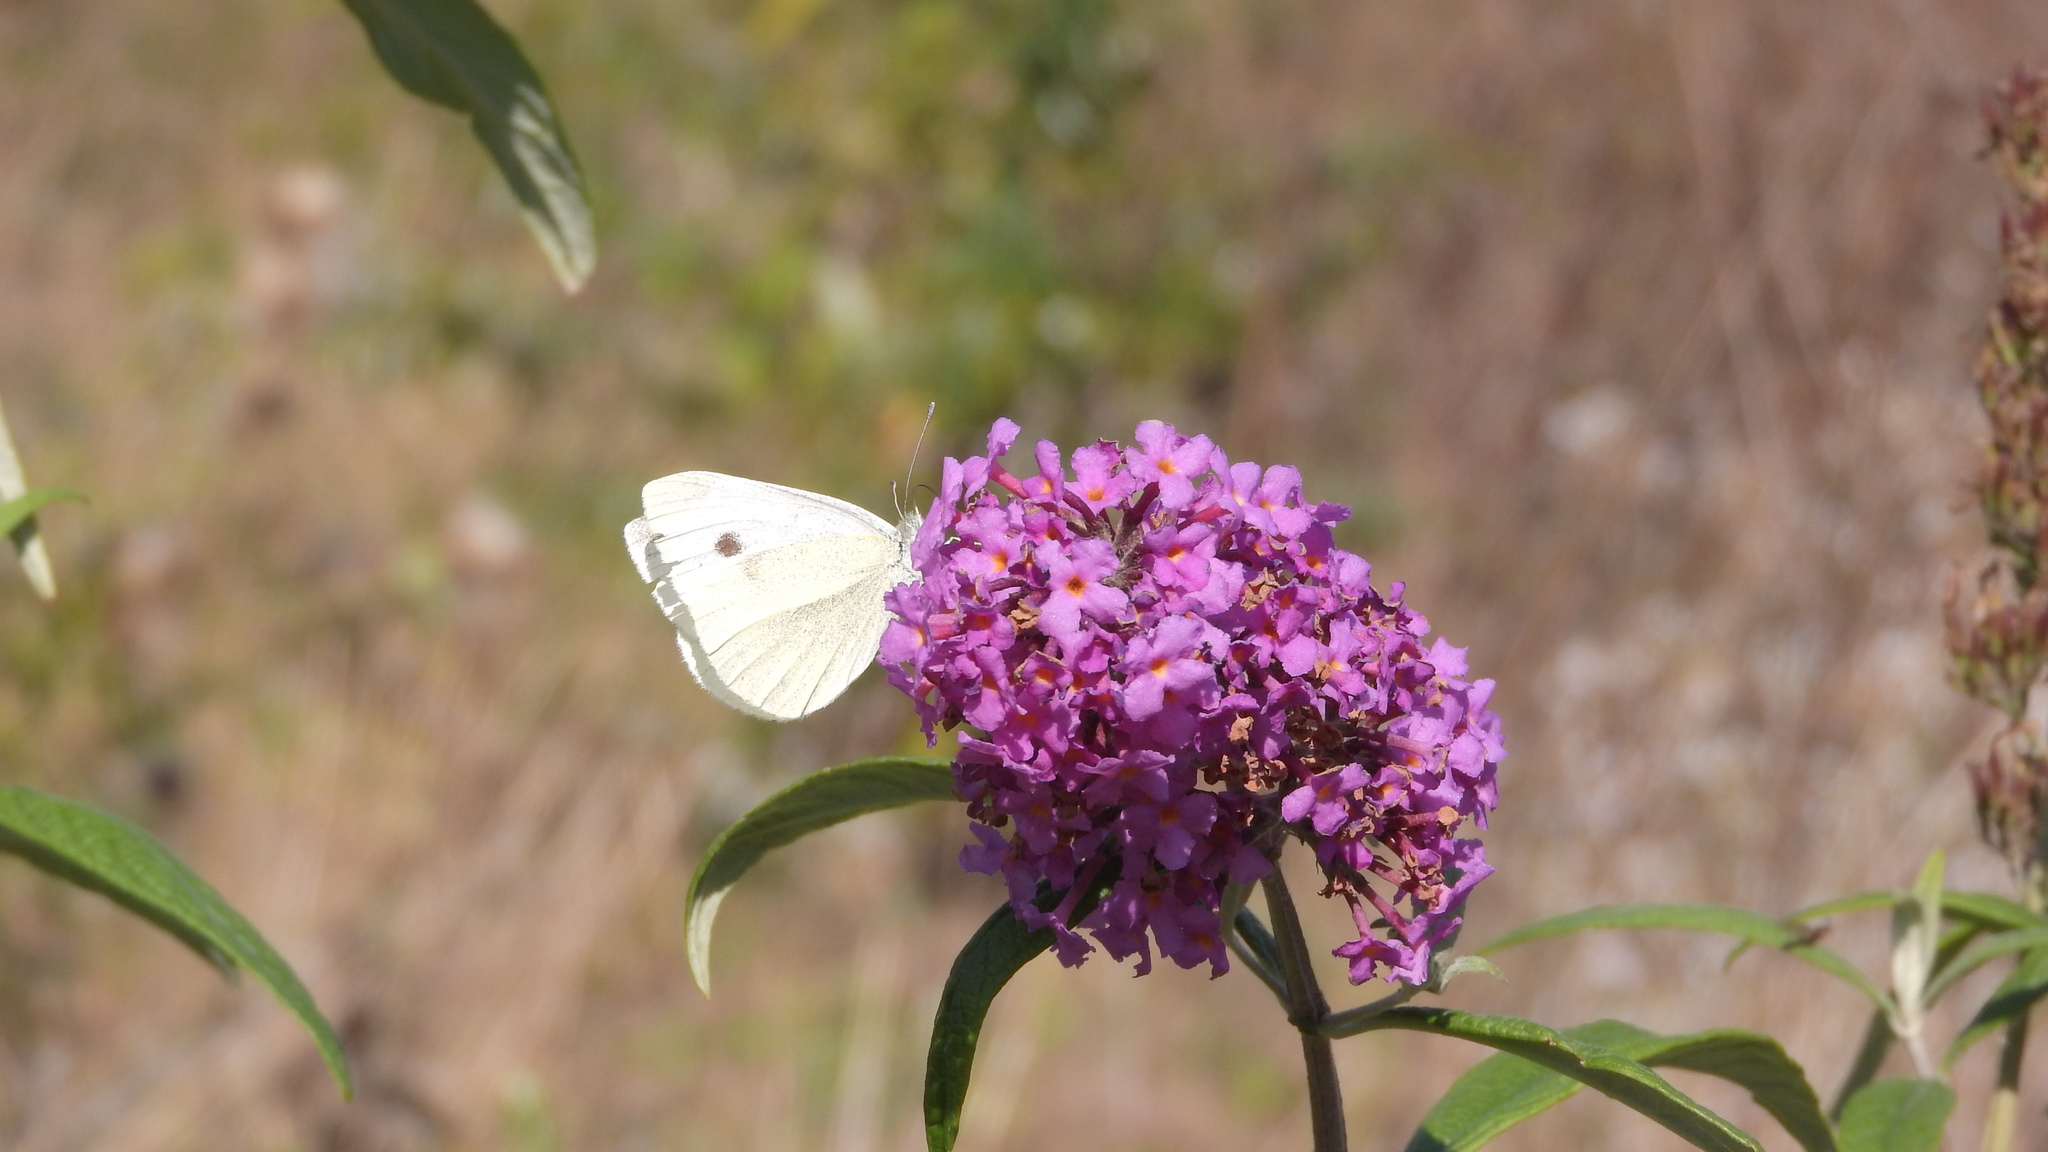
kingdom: Animalia
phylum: Arthropoda
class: Insecta
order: Lepidoptera
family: Pieridae
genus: Pieris
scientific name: Pieris rapae
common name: Small white
